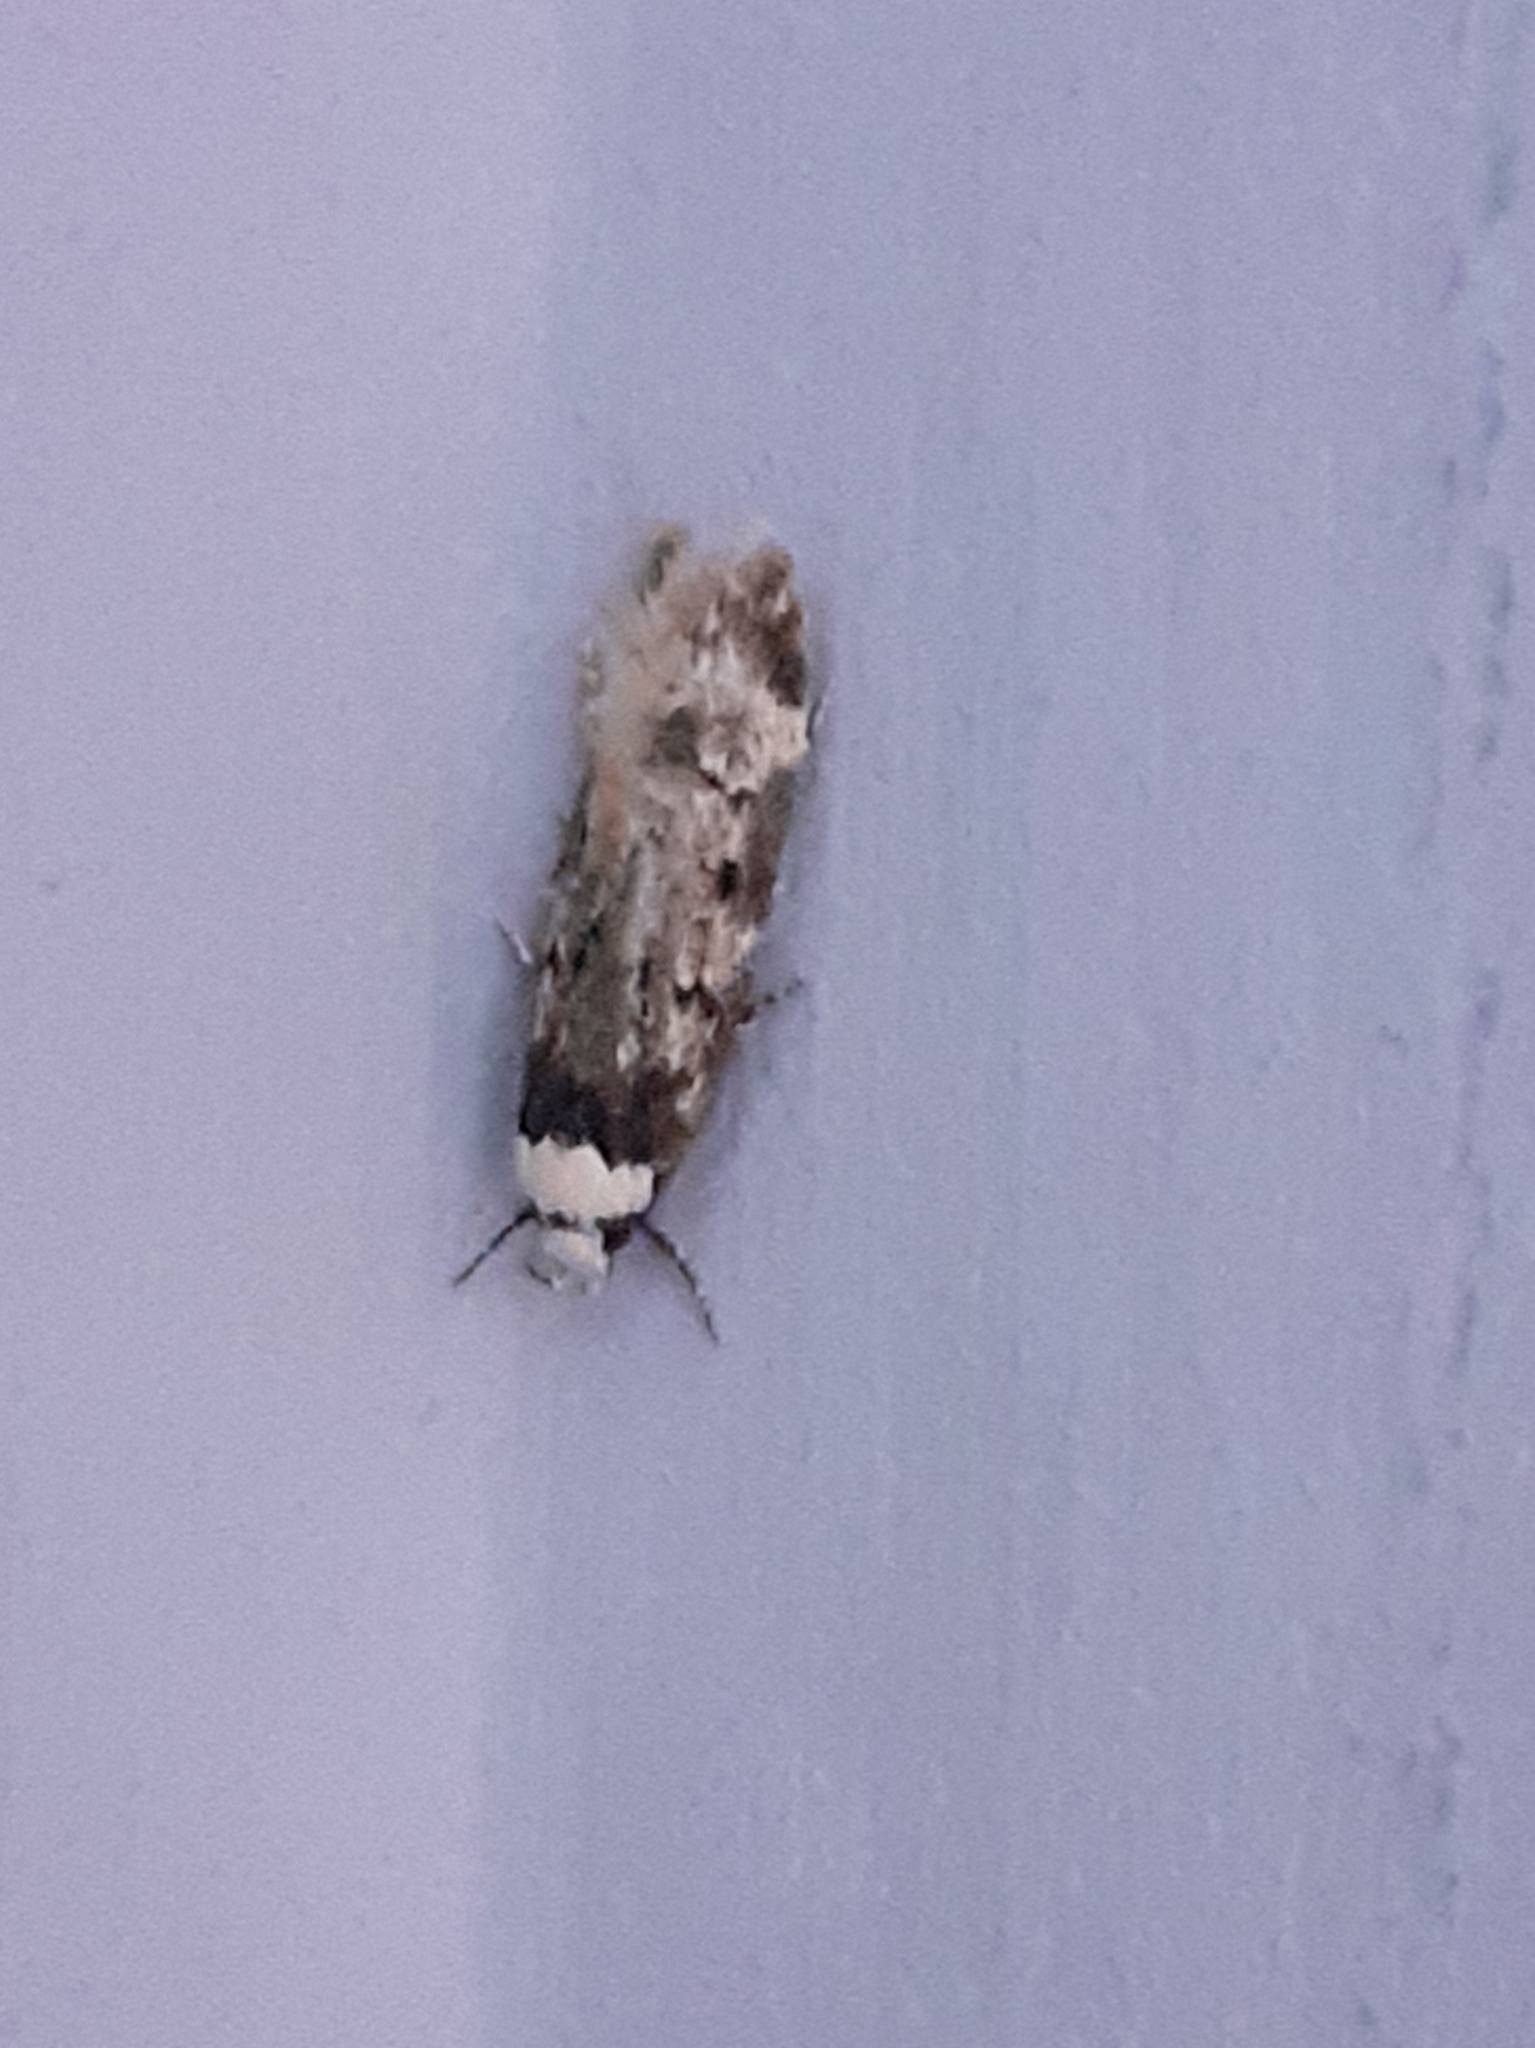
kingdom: Animalia
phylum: Arthropoda
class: Insecta
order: Lepidoptera
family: Oecophoridae
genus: Endrosis
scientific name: Endrosis sarcitrella
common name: White-shouldered house moth
